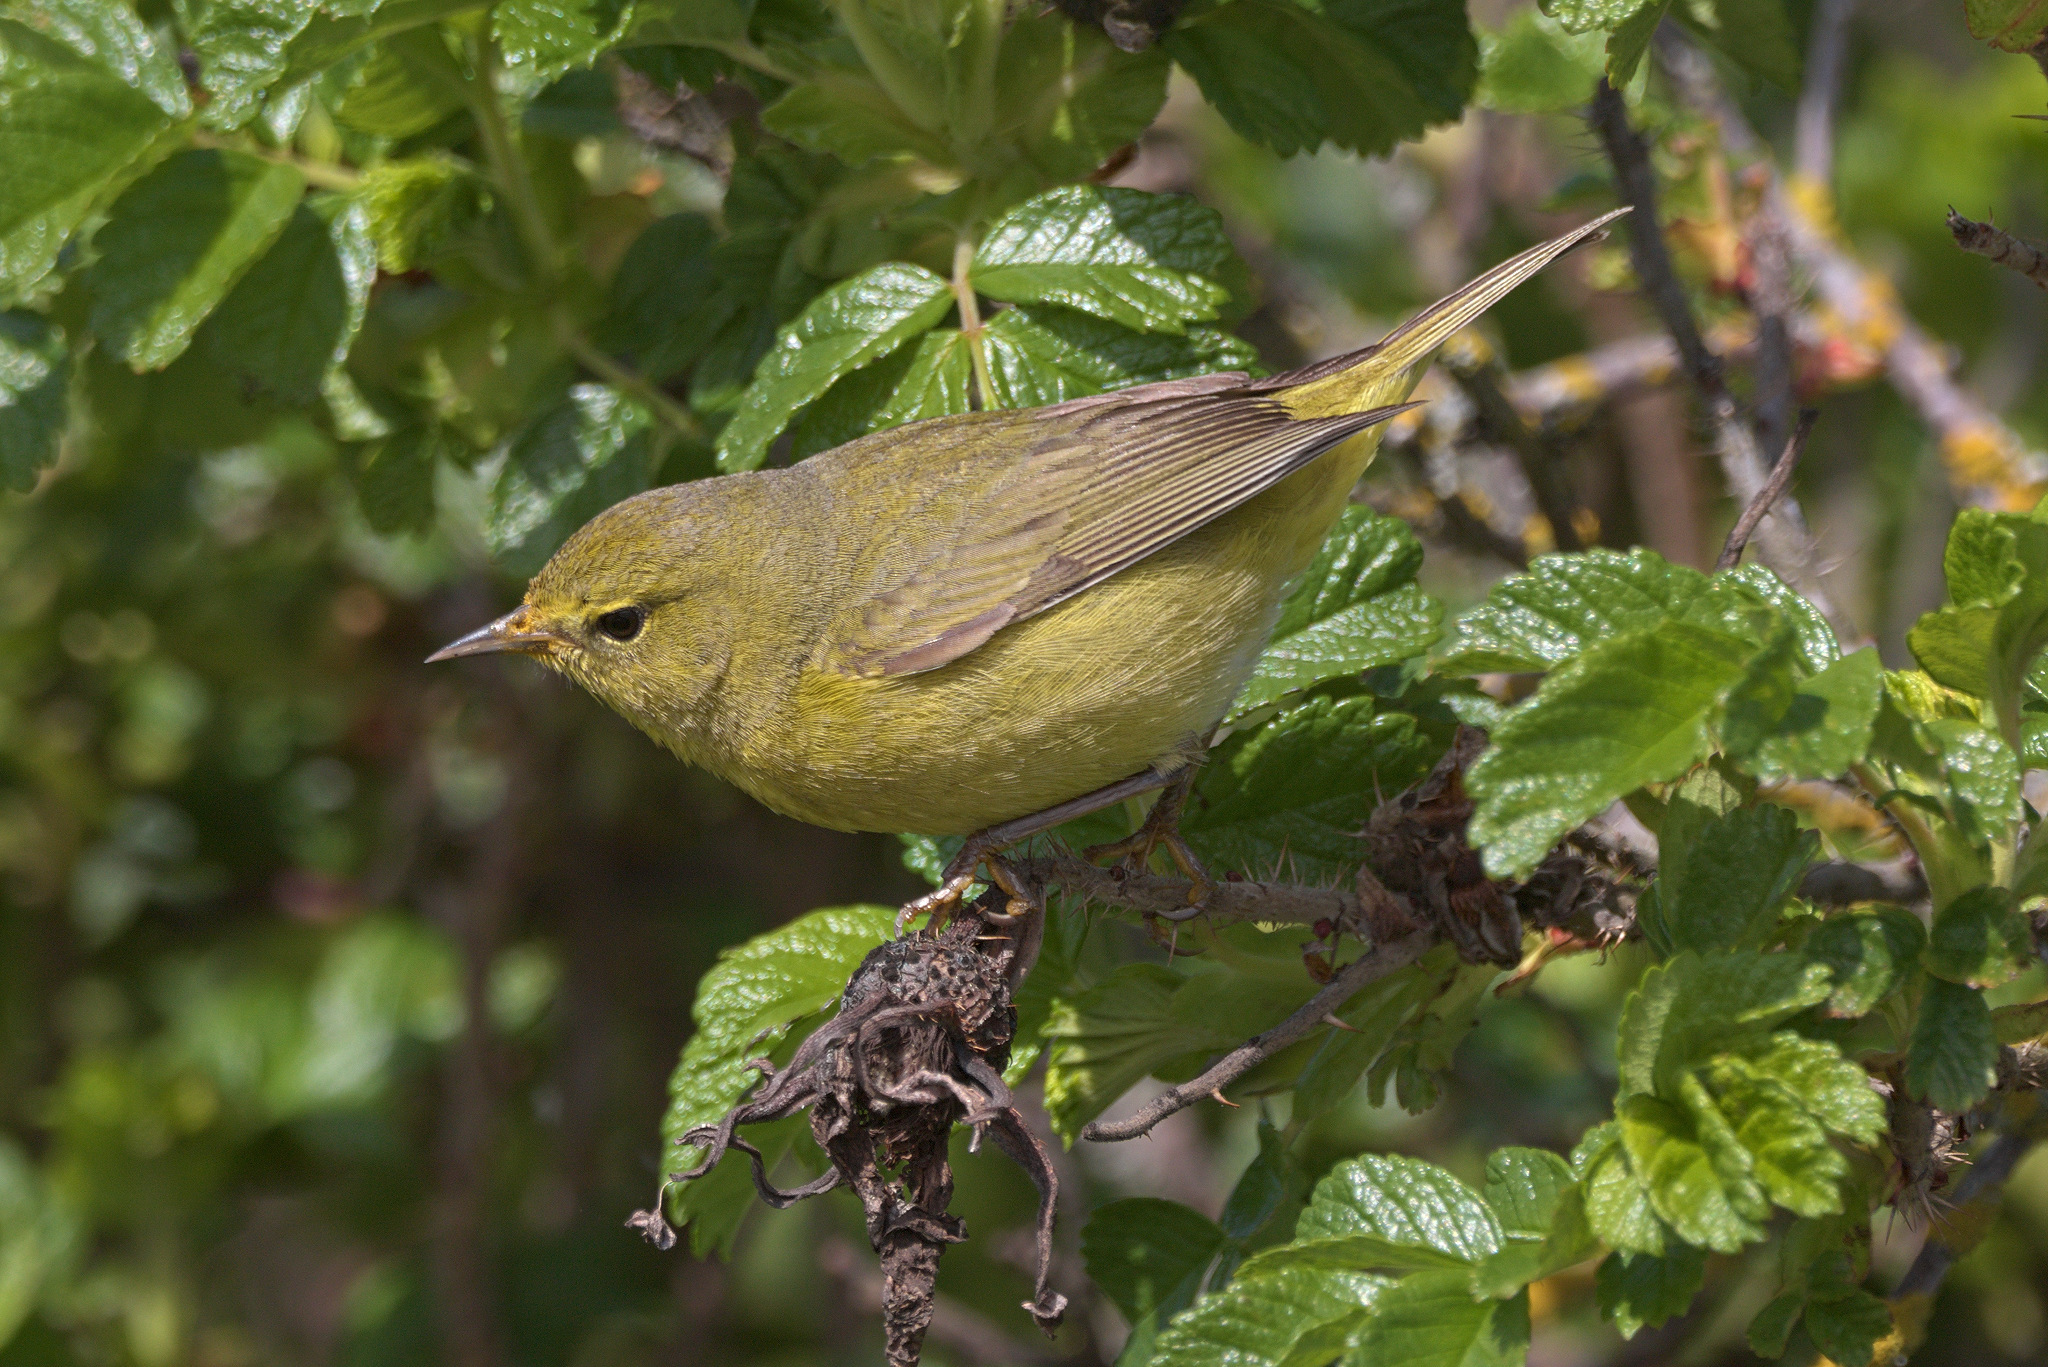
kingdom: Animalia
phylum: Chordata
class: Aves
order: Passeriformes
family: Parulidae
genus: Leiothlypis
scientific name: Leiothlypis celata
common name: Orange-crowned warbler
